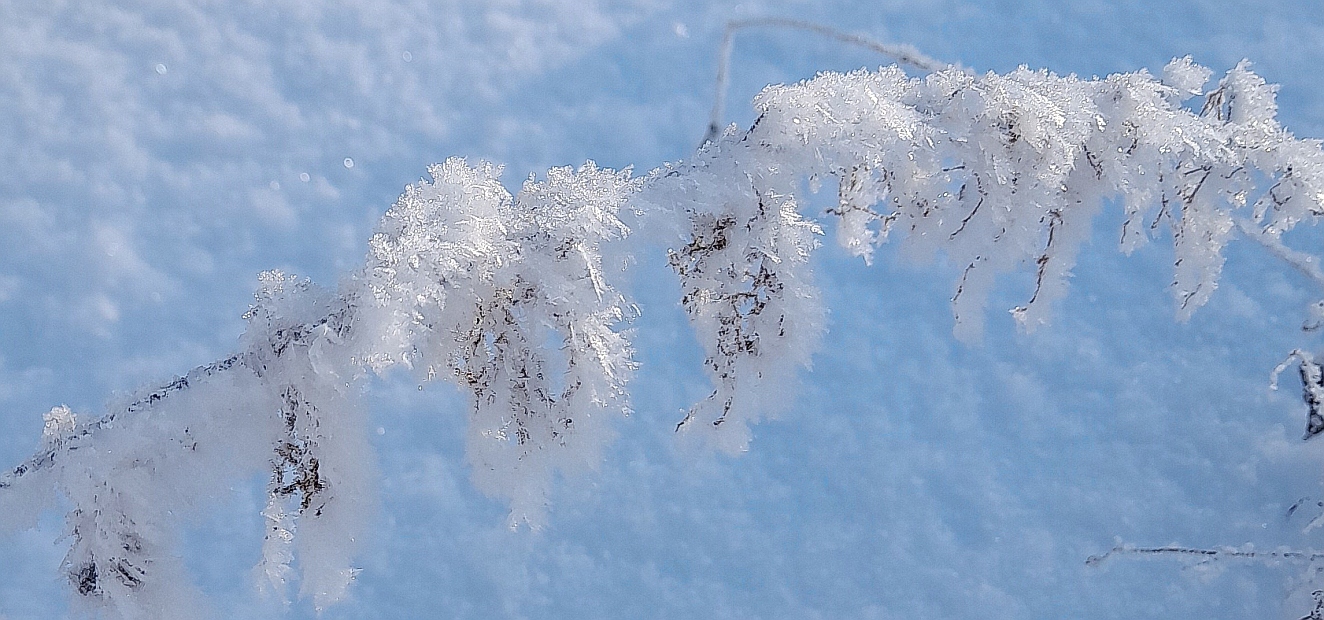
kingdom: Plantae
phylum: Tracheophyta
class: Magnoliopsida
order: Rosales
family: Urticaceae
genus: Urtica
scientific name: Urtica dioica
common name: Common nettle
